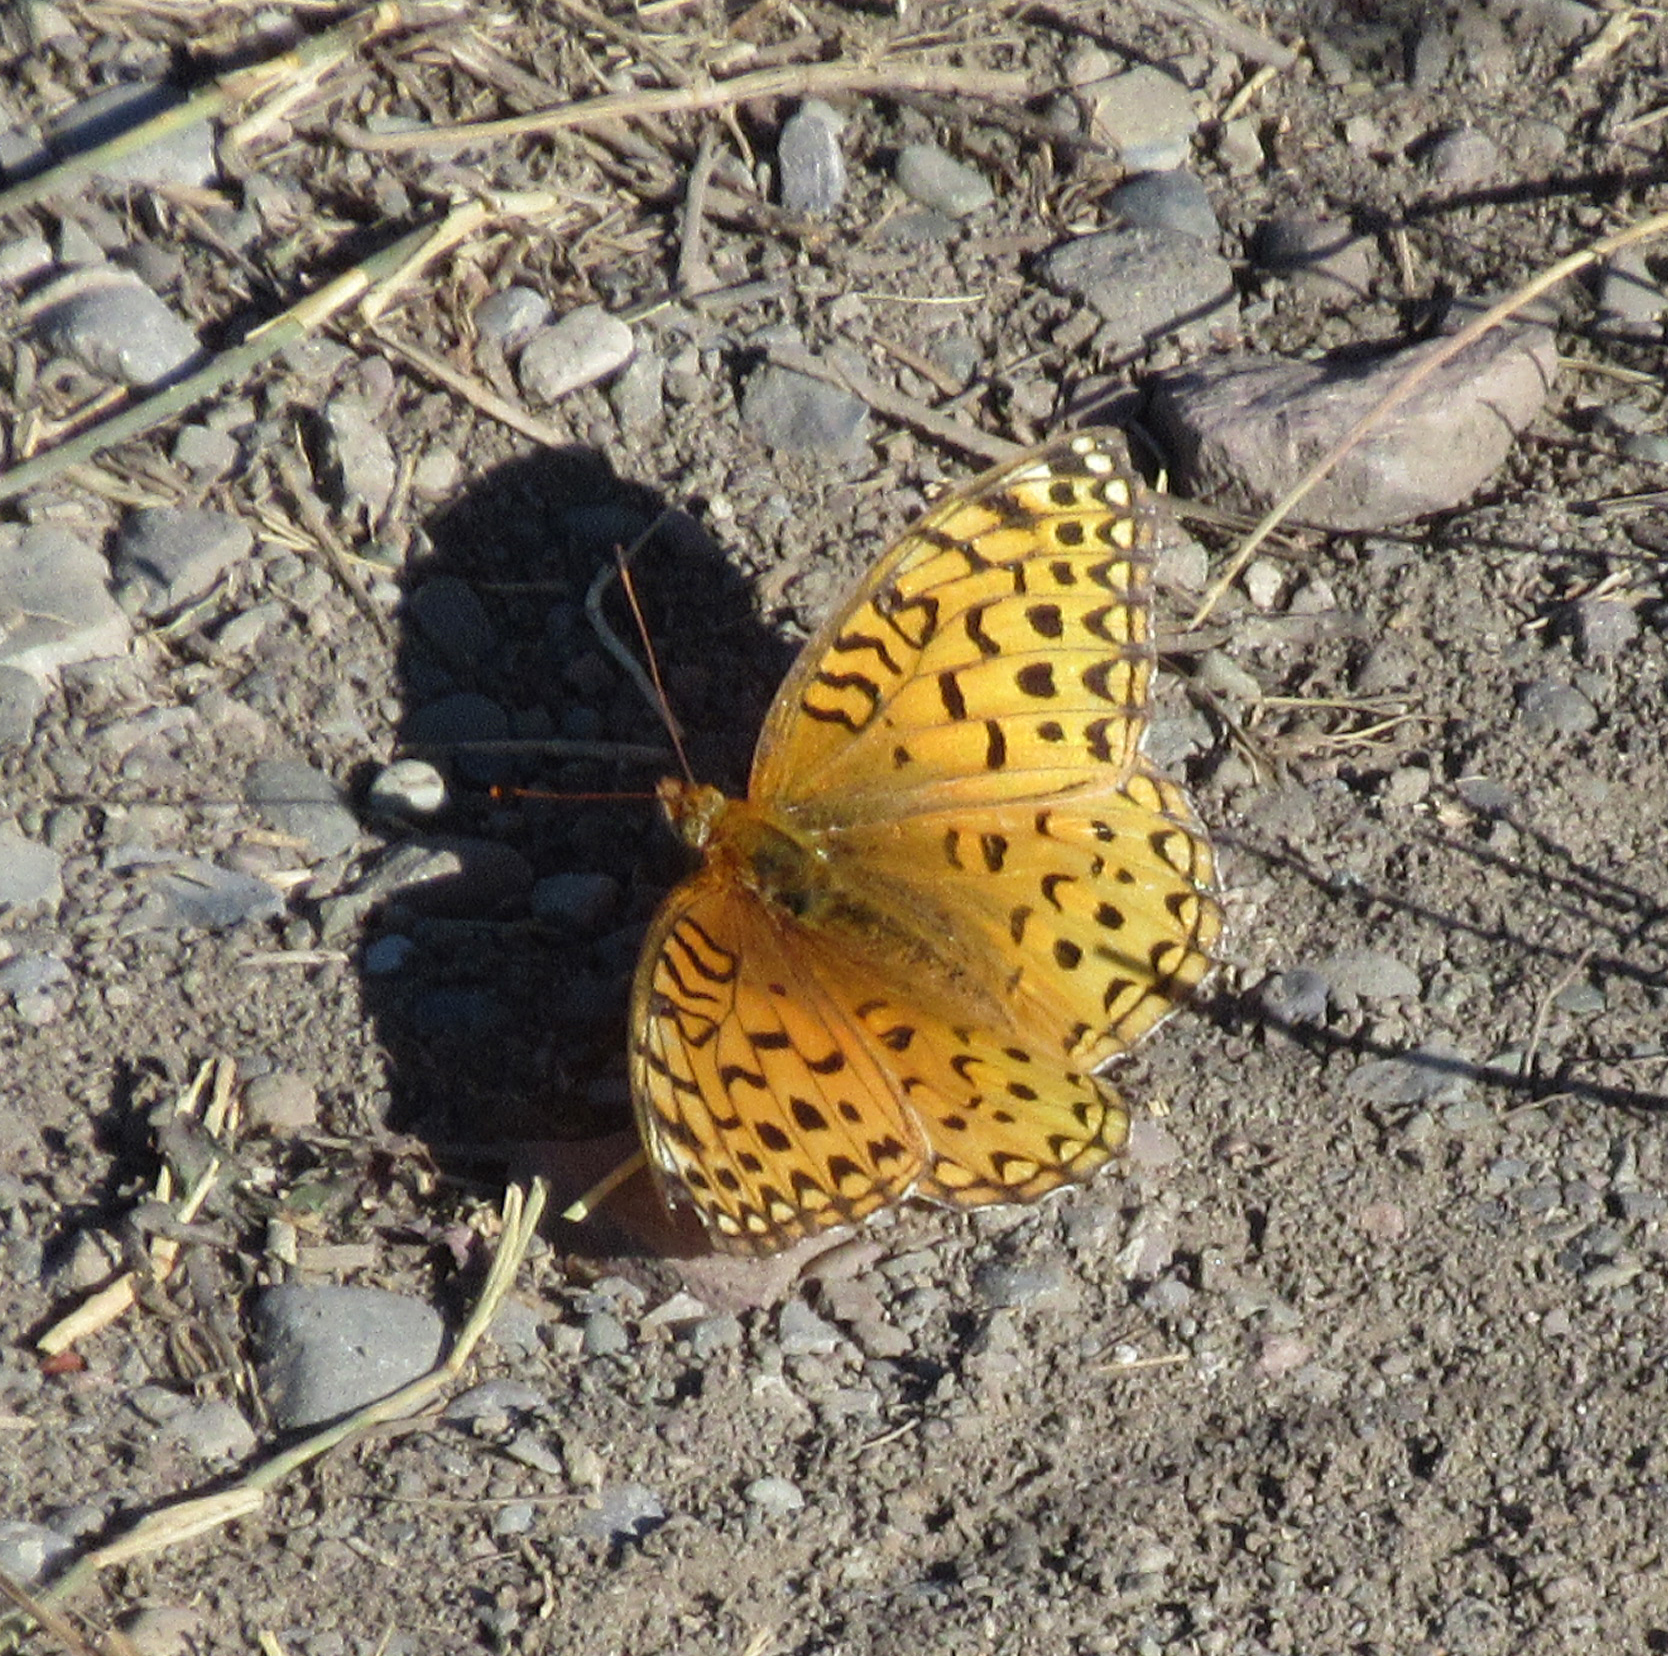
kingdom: Animalia
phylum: Arthropoda
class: Insecta
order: Lepidoptera
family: Nymphalidae
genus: Speyeria
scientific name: Speyeria aphrodite
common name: Aphrodite friitllary
